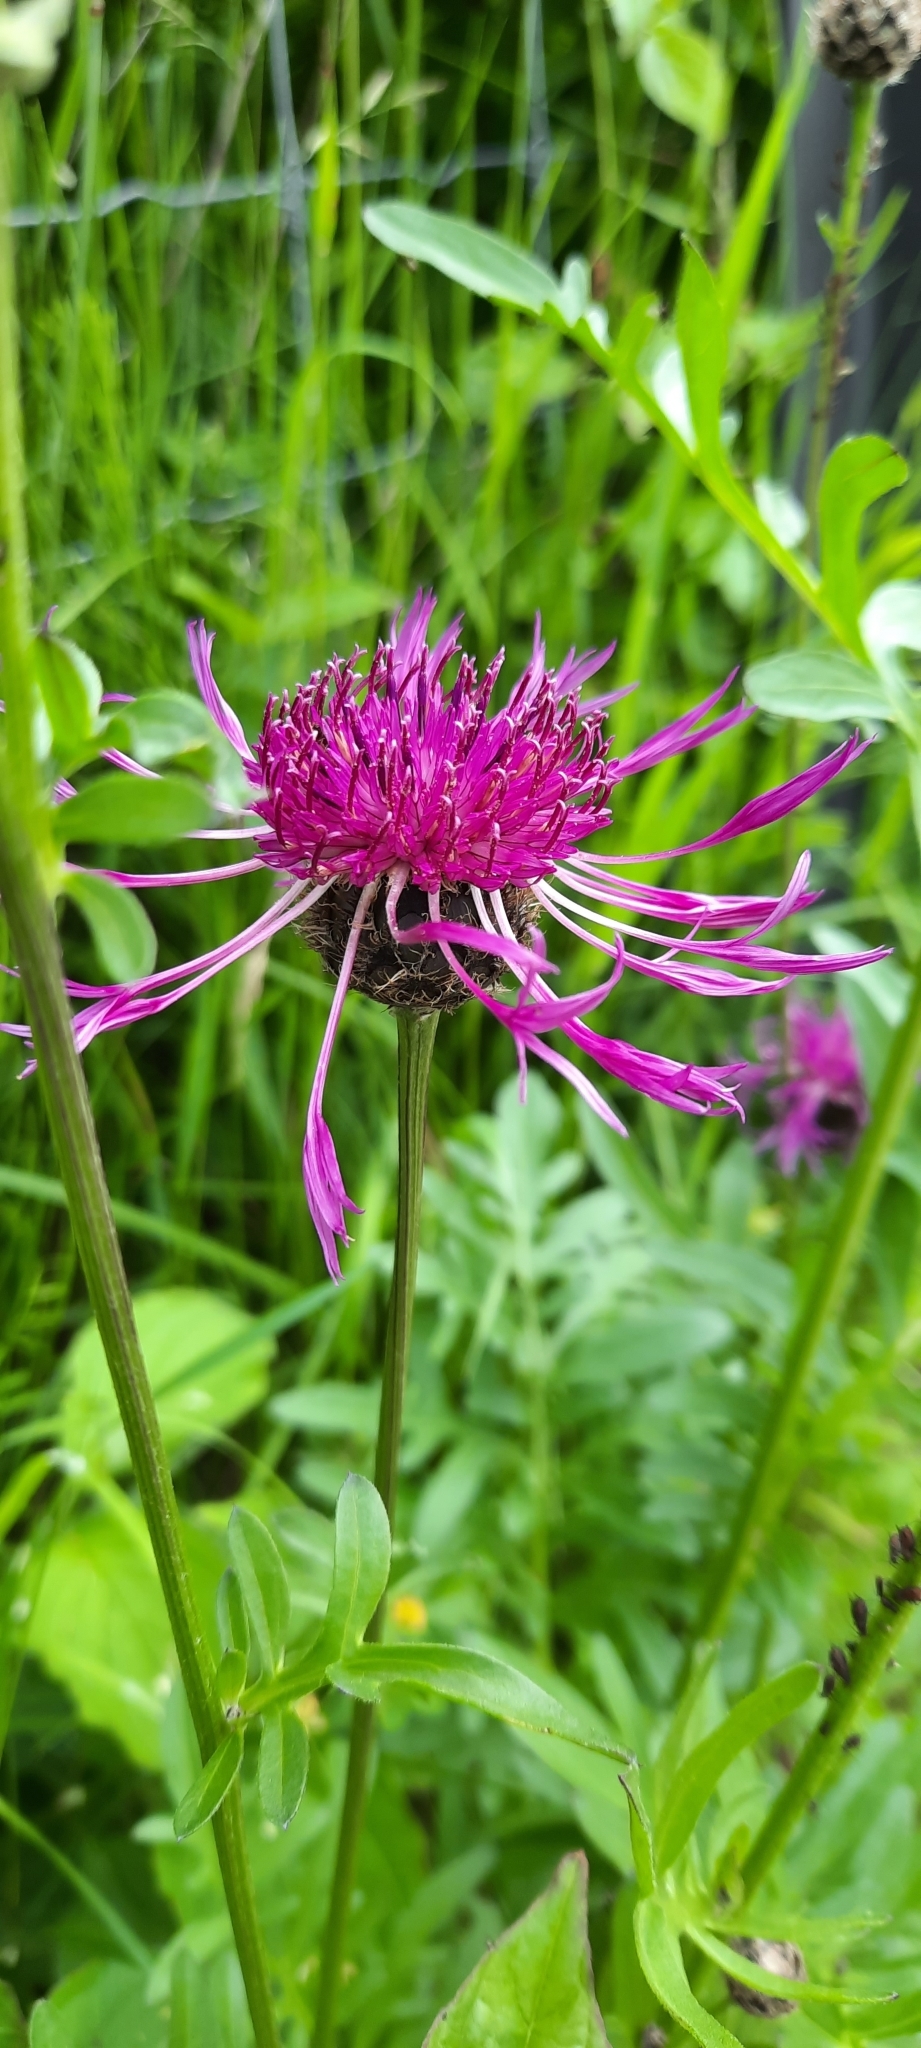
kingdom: Plantae
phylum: Tracheophyta
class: Magnoliopsida
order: Asterales
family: Asteraceae
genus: Centaurea
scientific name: Centaurea scabiosa
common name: Greater knapweed
